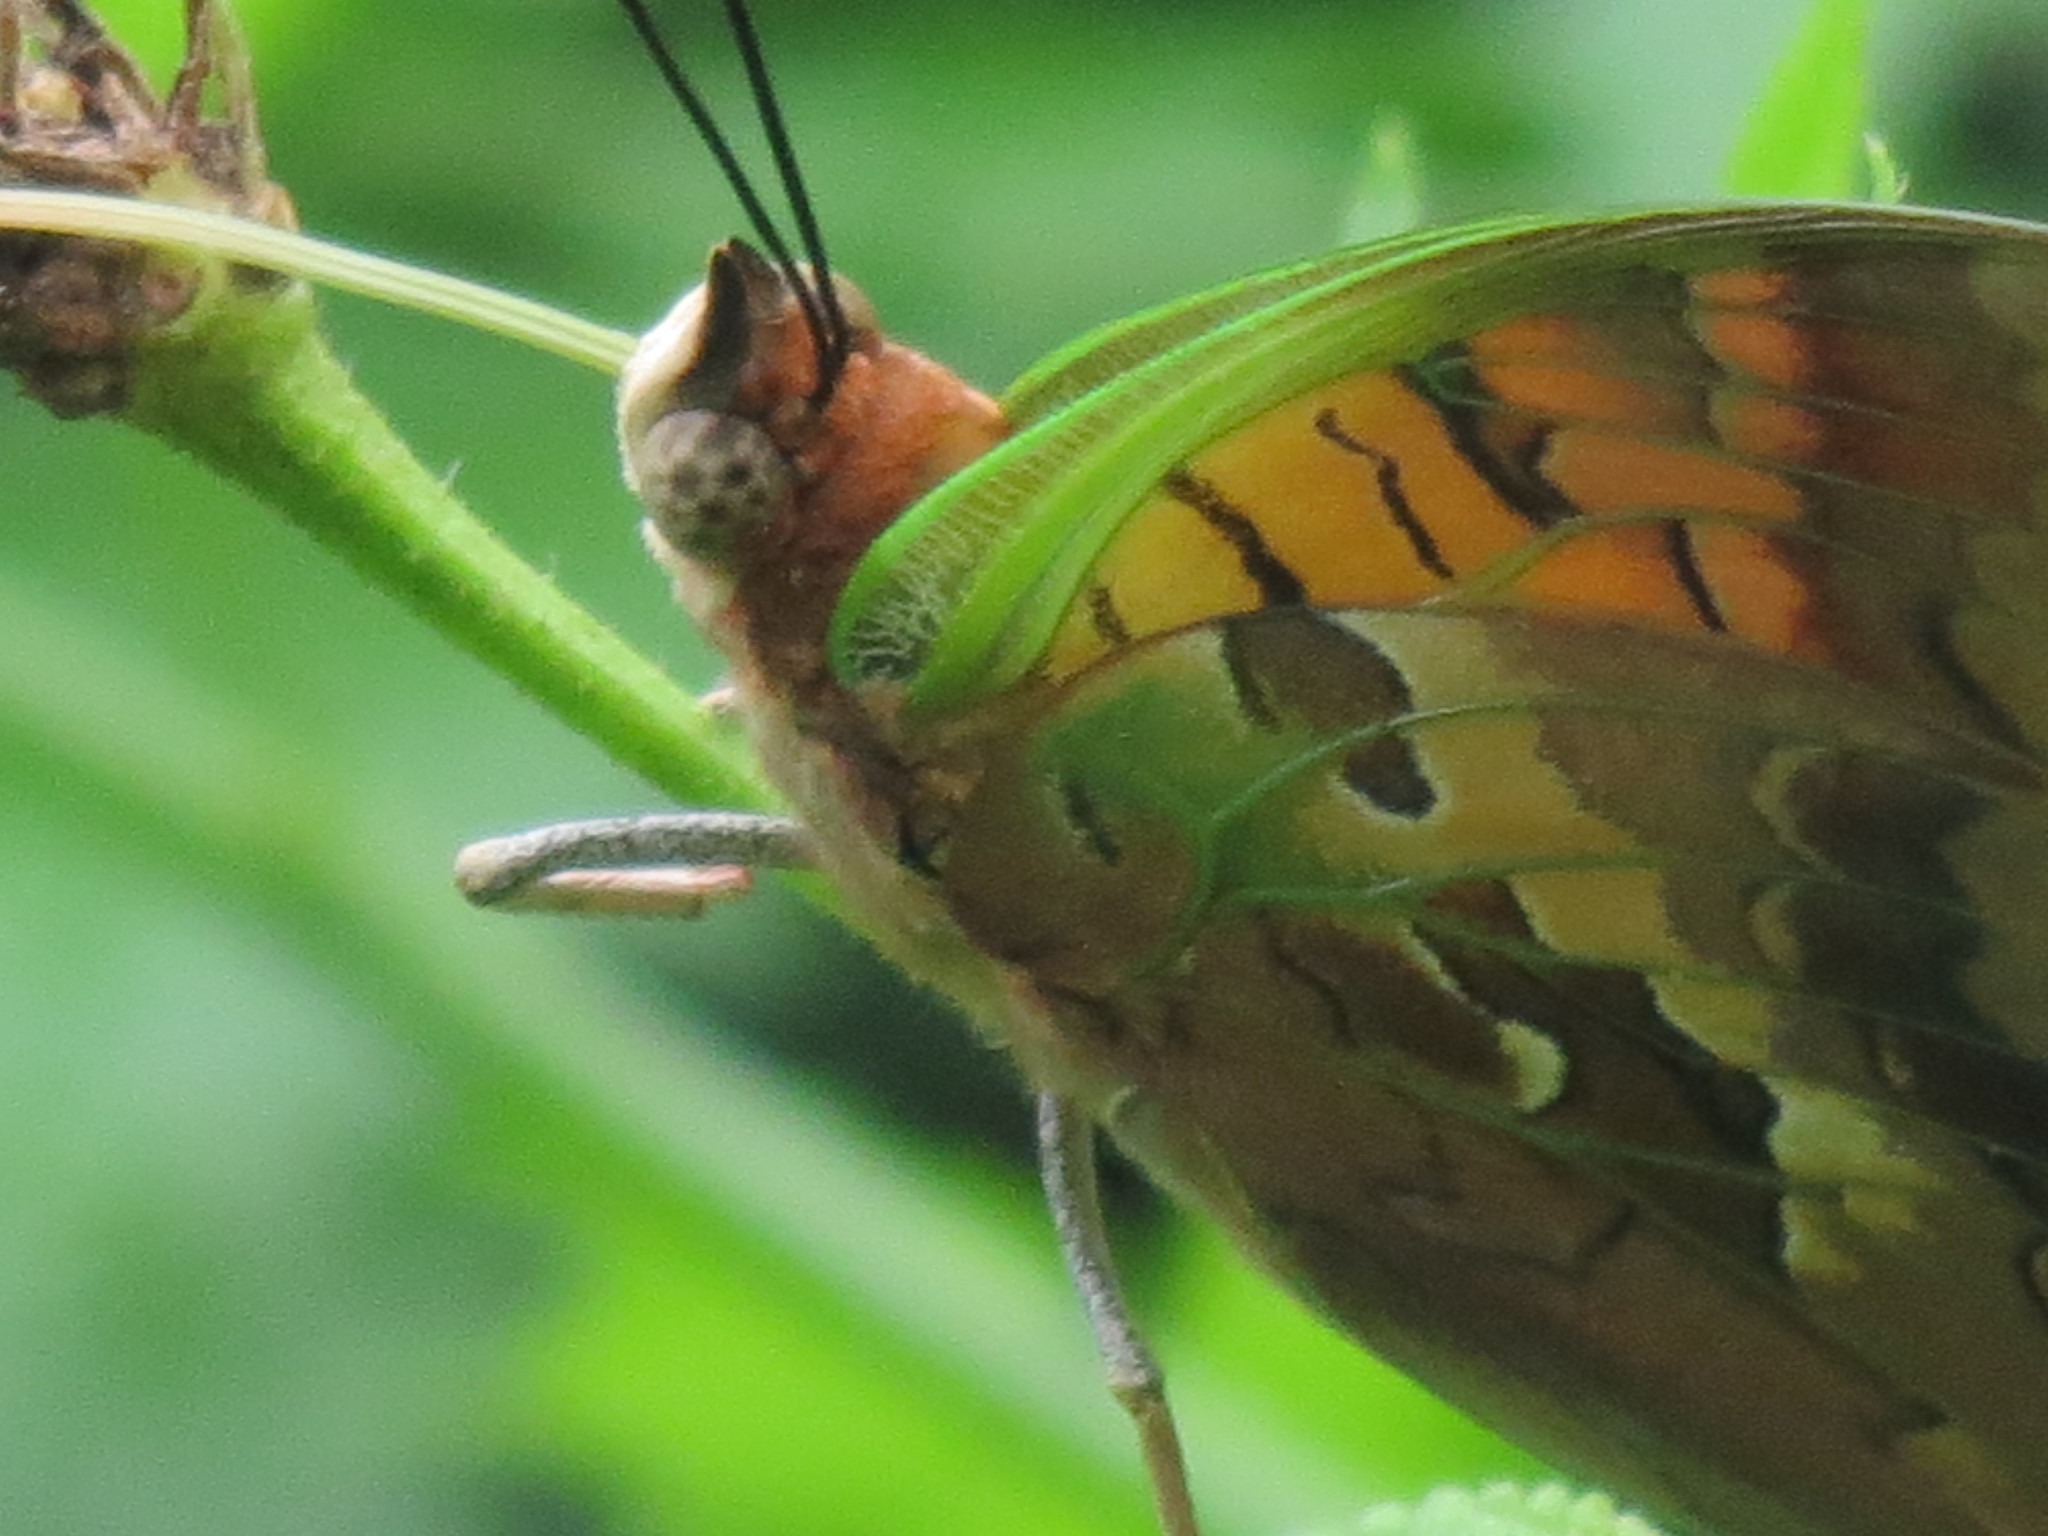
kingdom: Animalia
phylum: Arthropoda
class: Insecta
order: Lepidoptera
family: Nymphalidae
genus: Charaxes
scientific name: Charaxes candiope
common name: Green-veined charaxes
